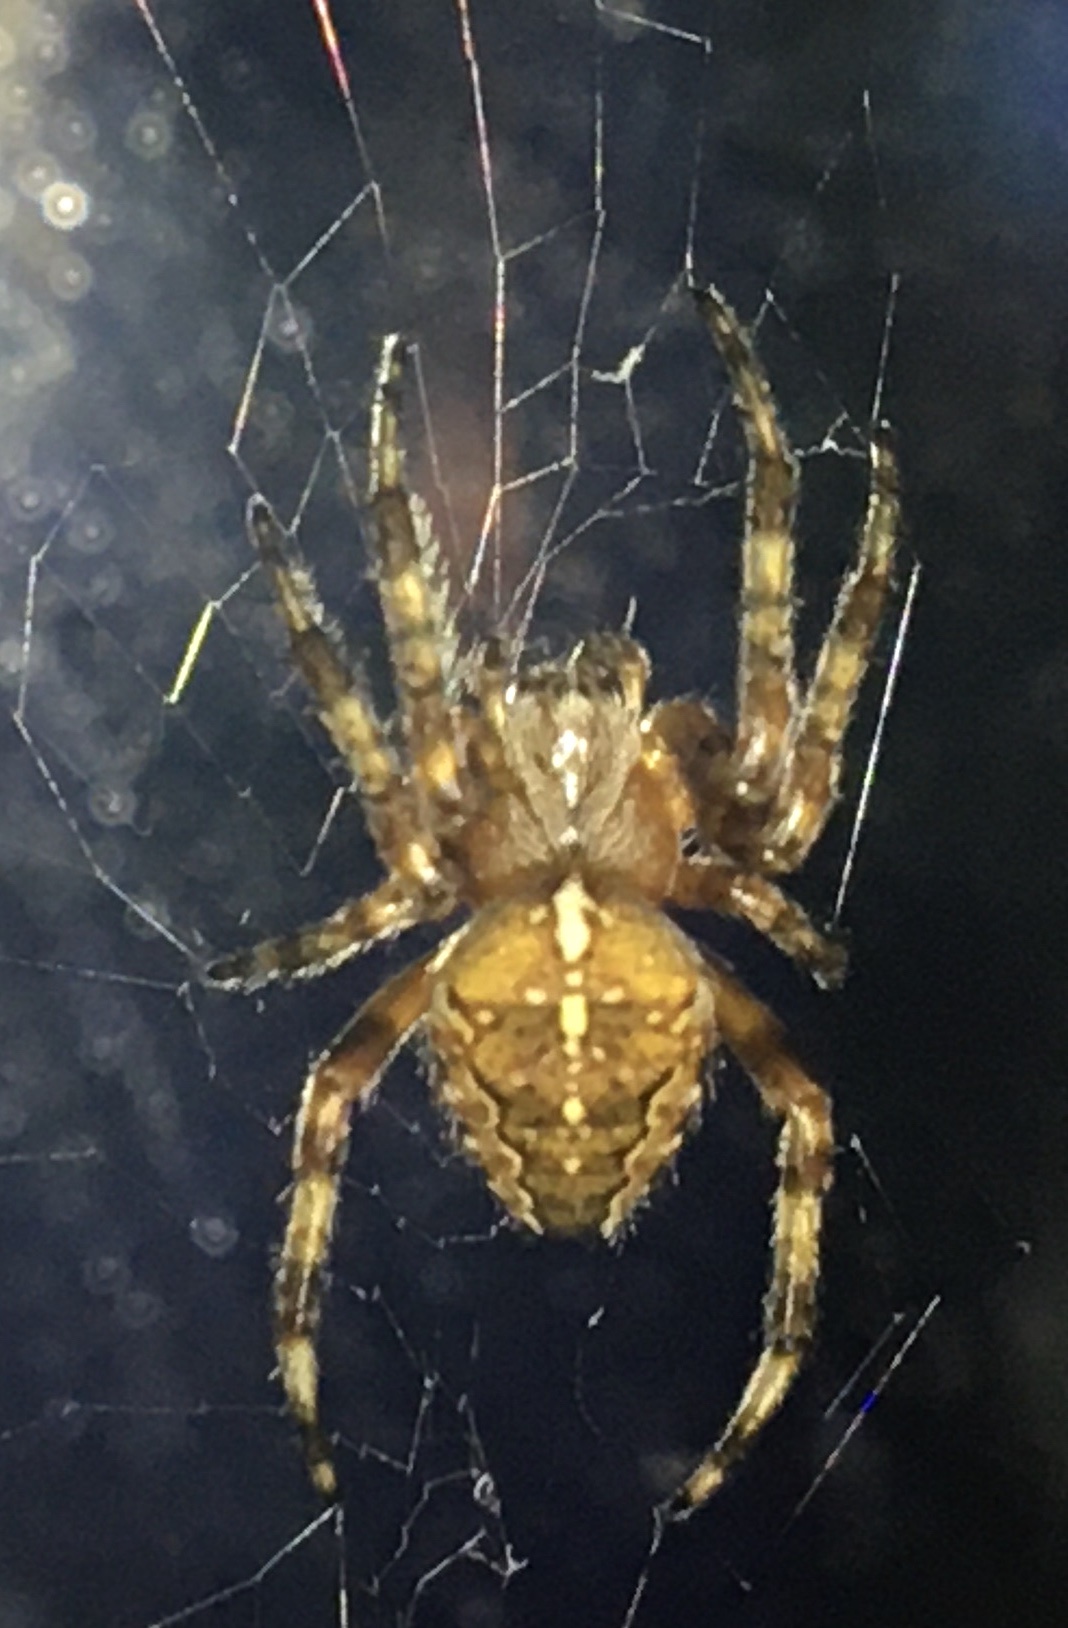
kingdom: Animalia
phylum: Arthropoda
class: Arachnida
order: Araneae
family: Araneidae
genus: Araneus
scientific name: Araneus diadematus
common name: Cross orbweaver
